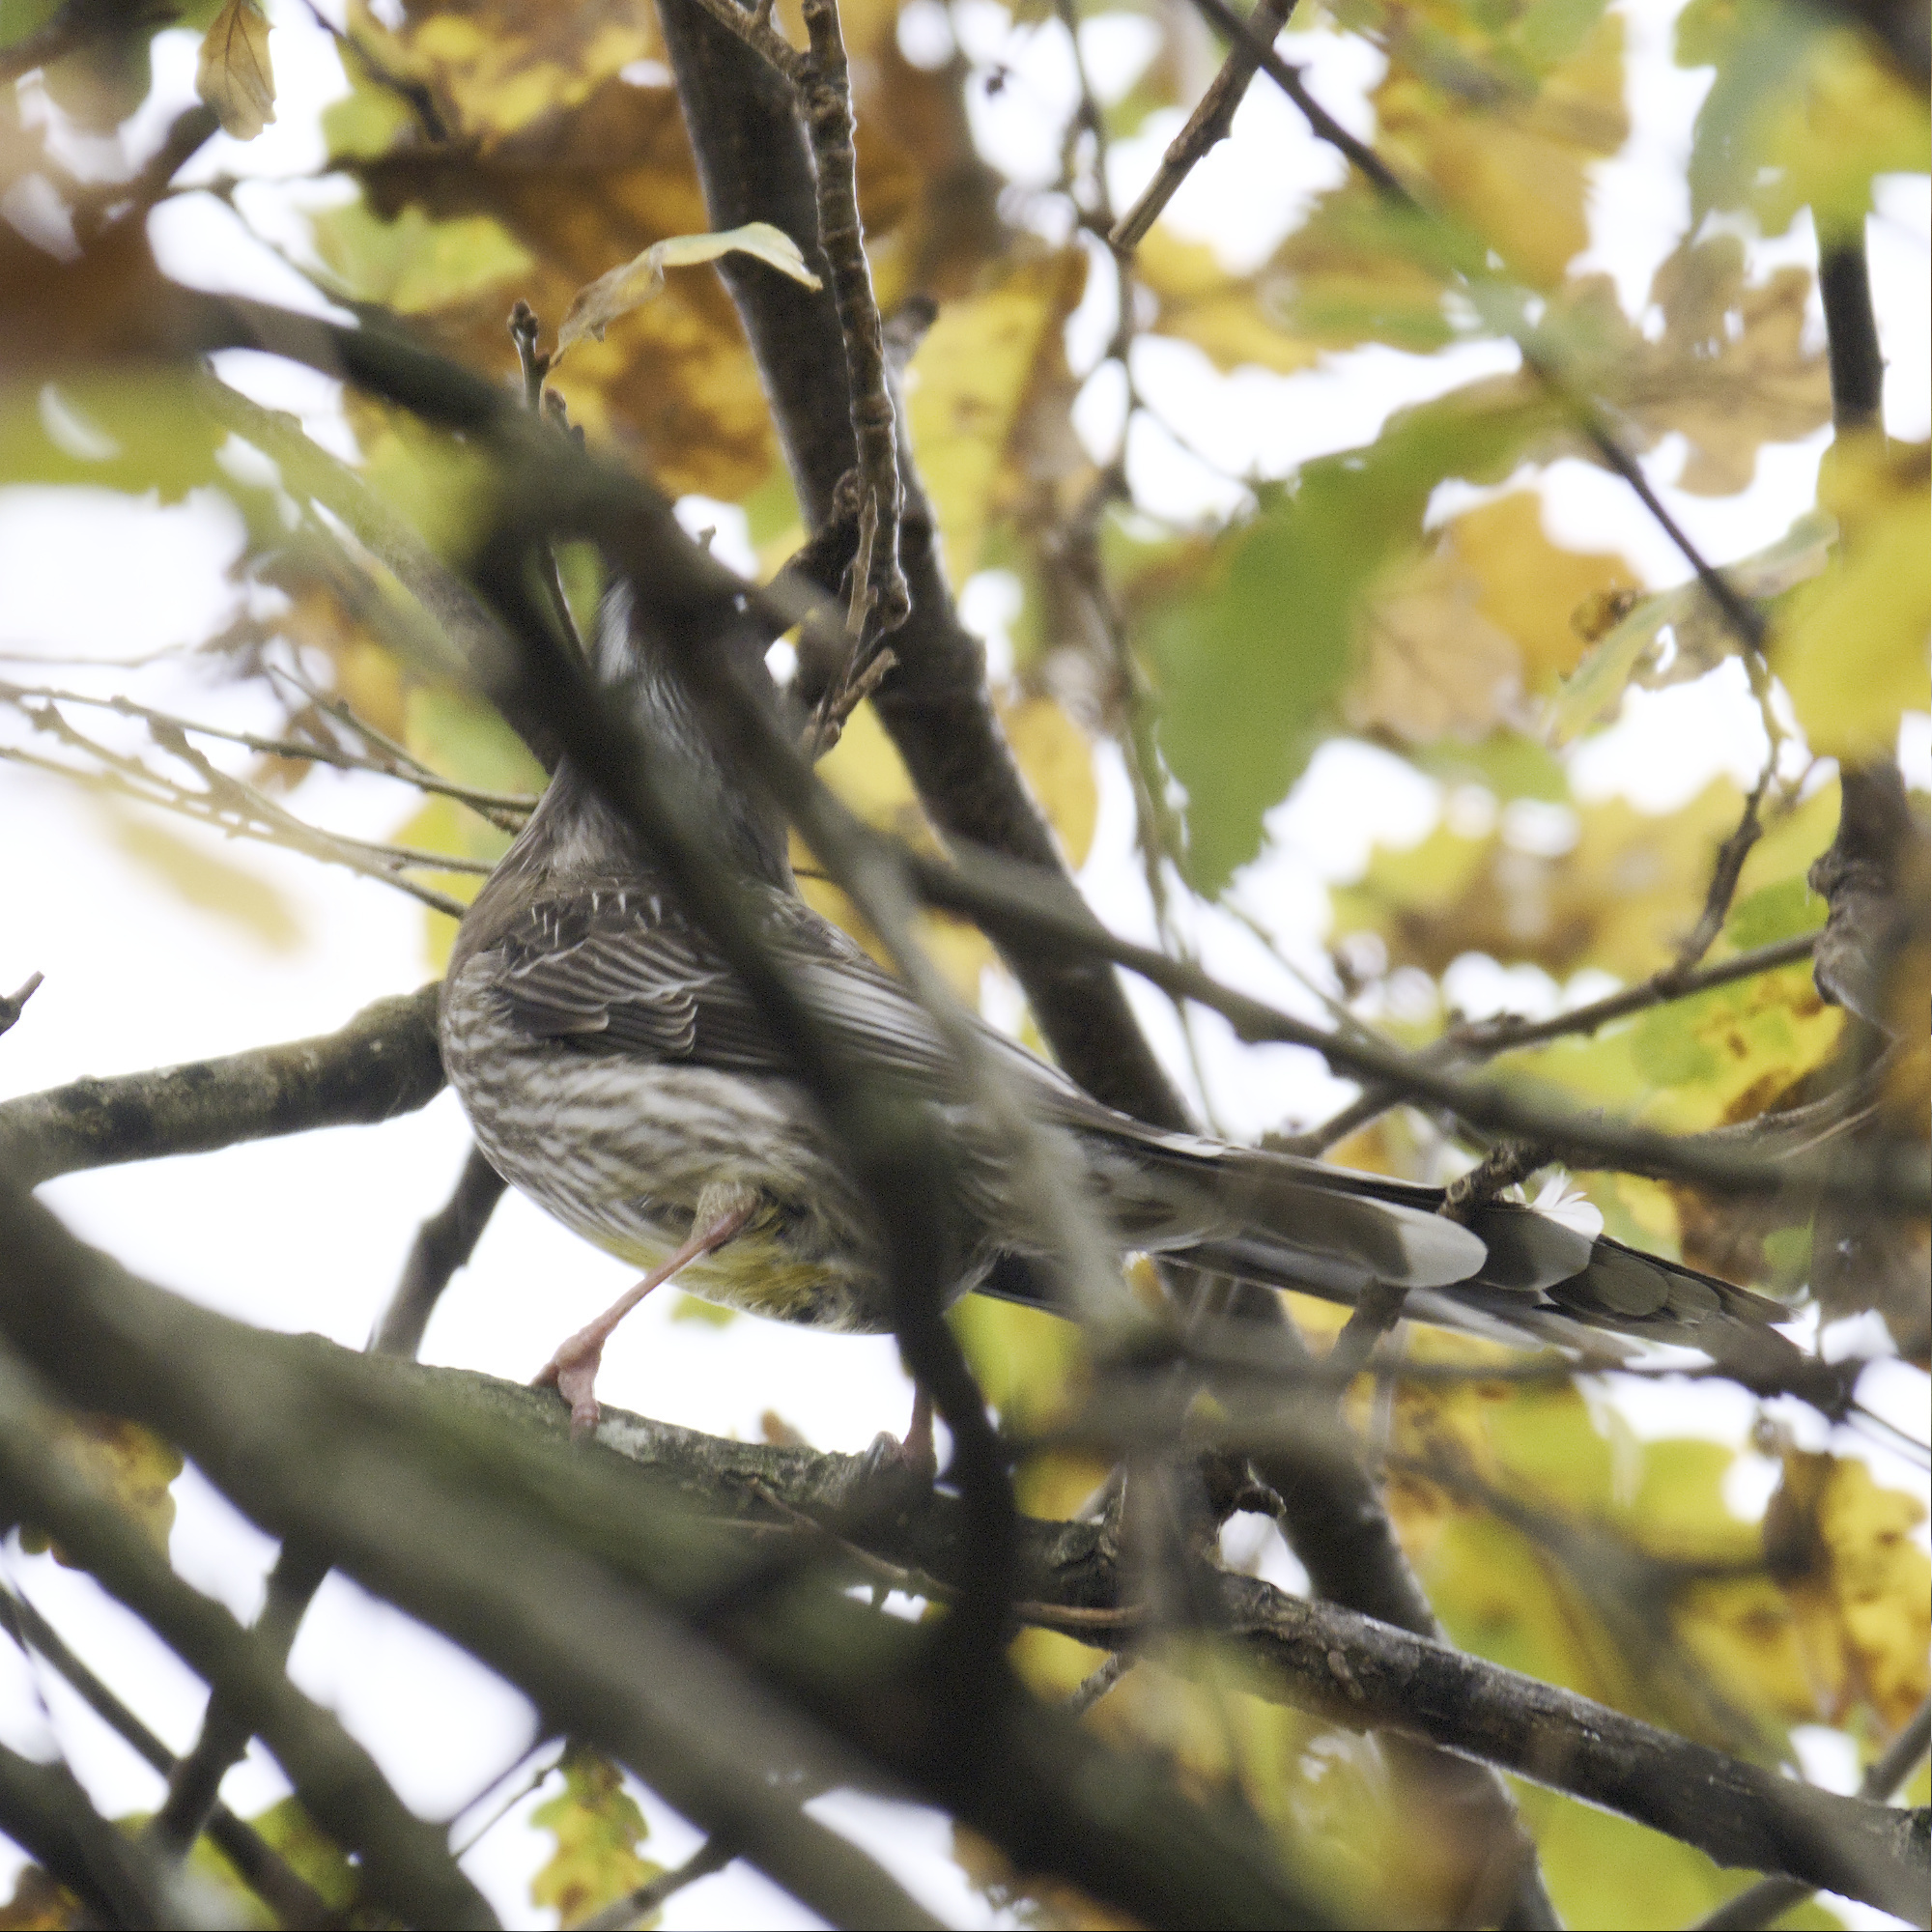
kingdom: Animalia
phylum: Chordata
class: Aves
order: Passeriformes
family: Meliphagidae
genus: Anthochaera
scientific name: Anthochaera carunculata
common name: Red wattlebird
